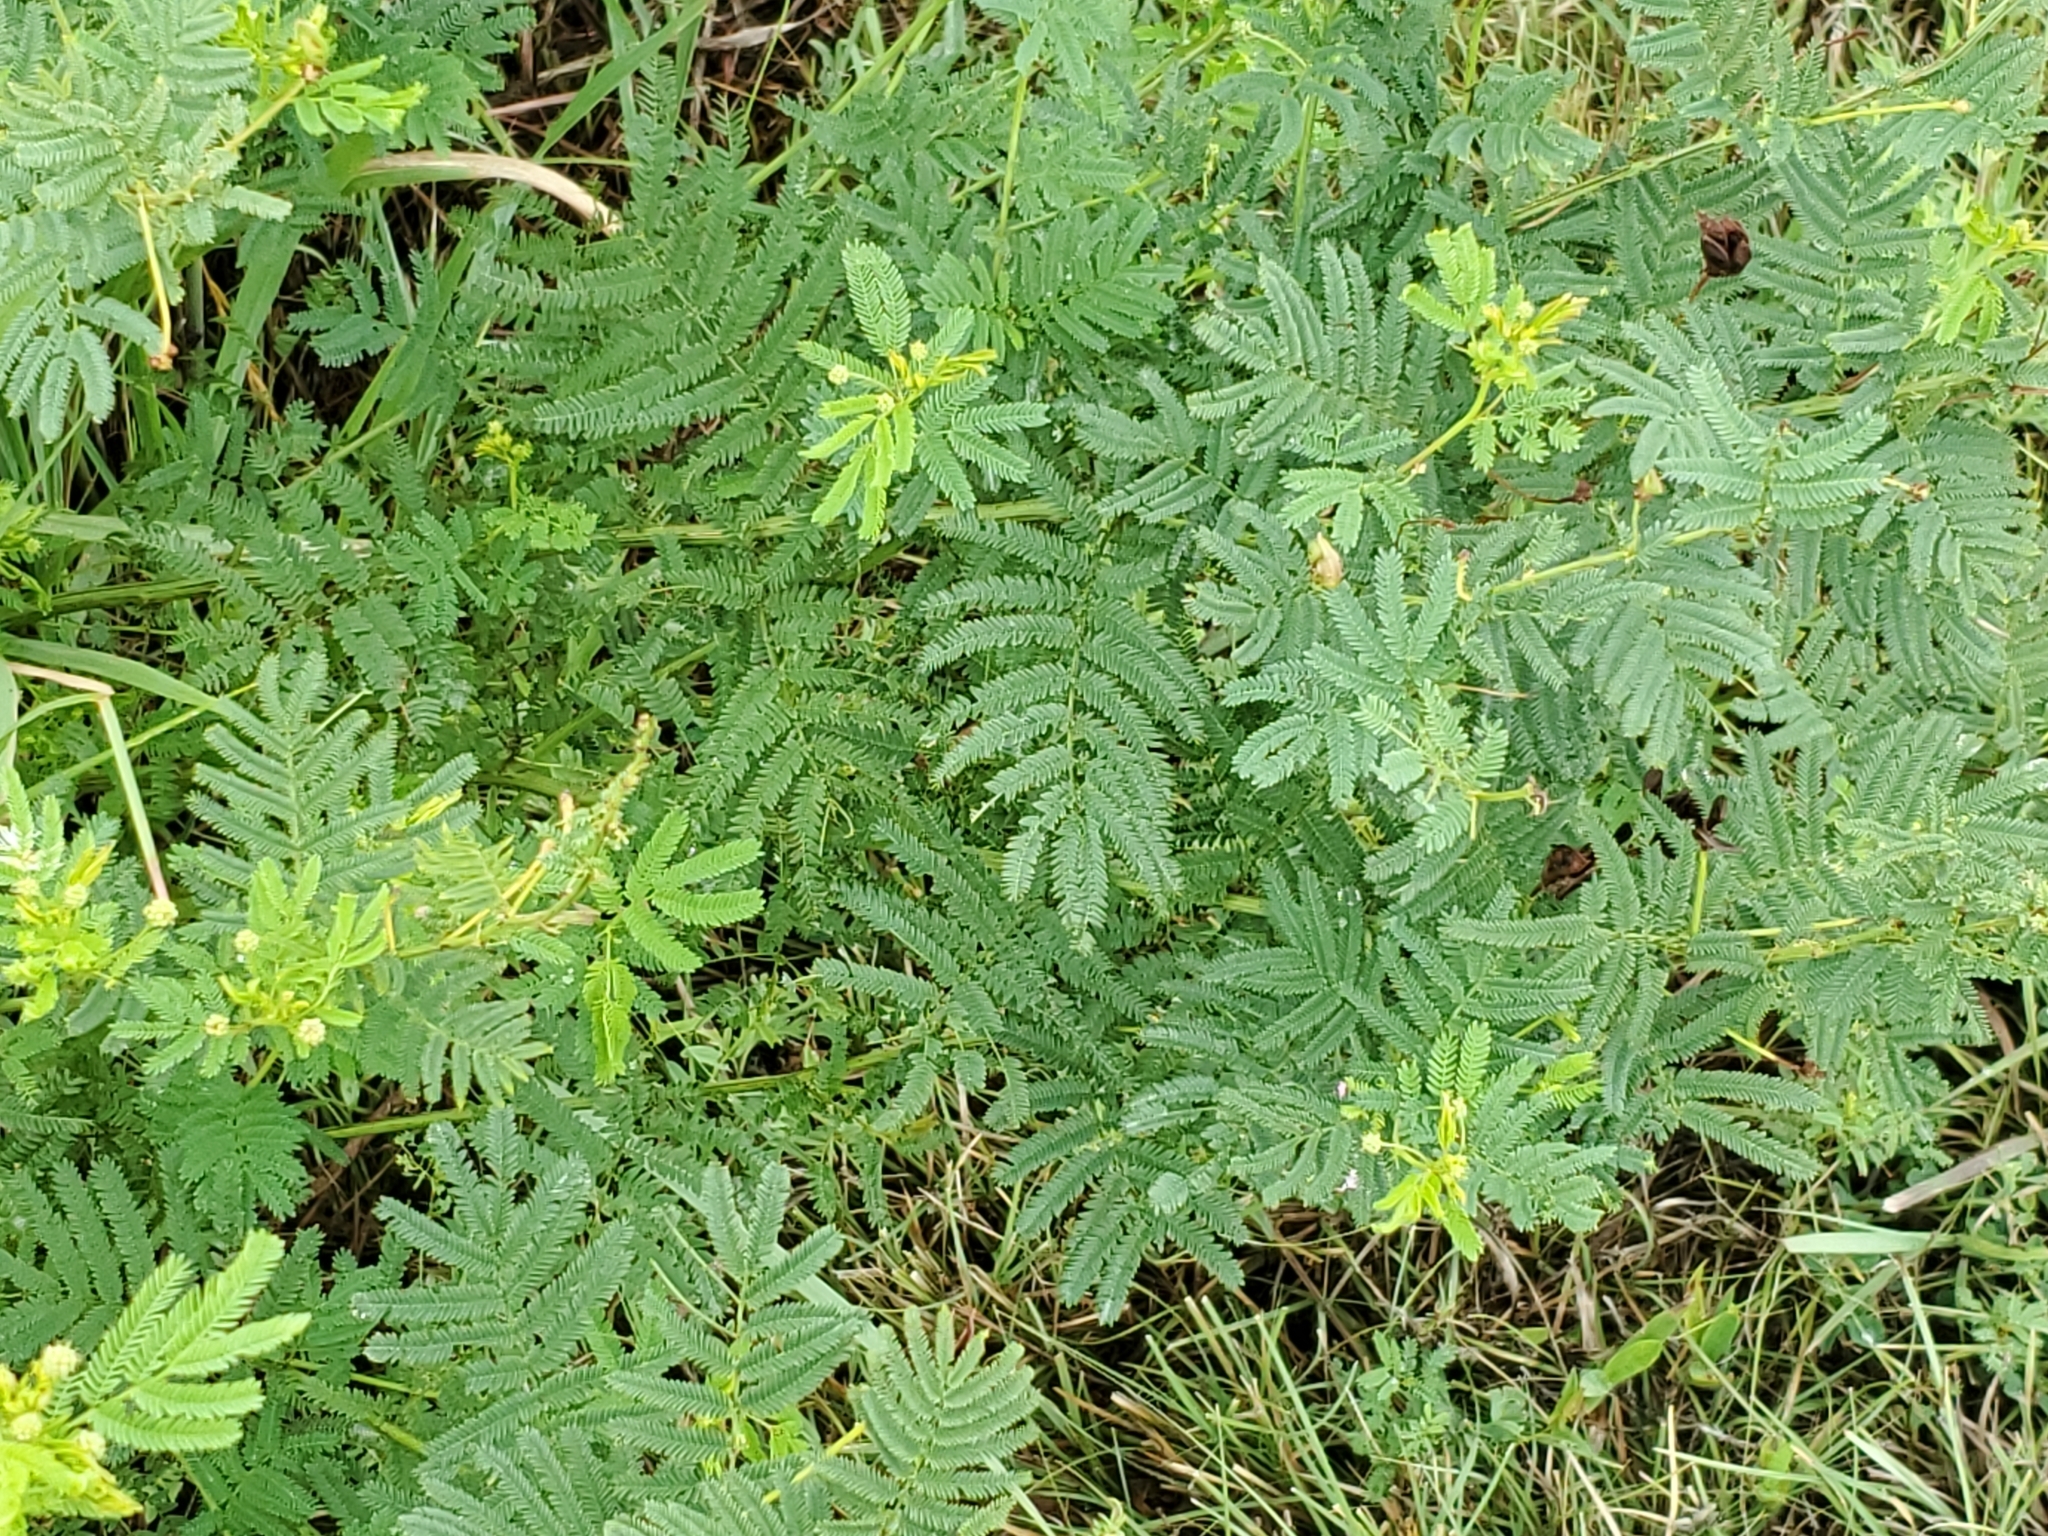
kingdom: Plantae
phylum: Tracheophyta
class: Magnoliopsida
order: Fabales
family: Fabaceae
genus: Desmanthus
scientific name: Desmanthus illinoensis
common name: Illinois bundle-flower
